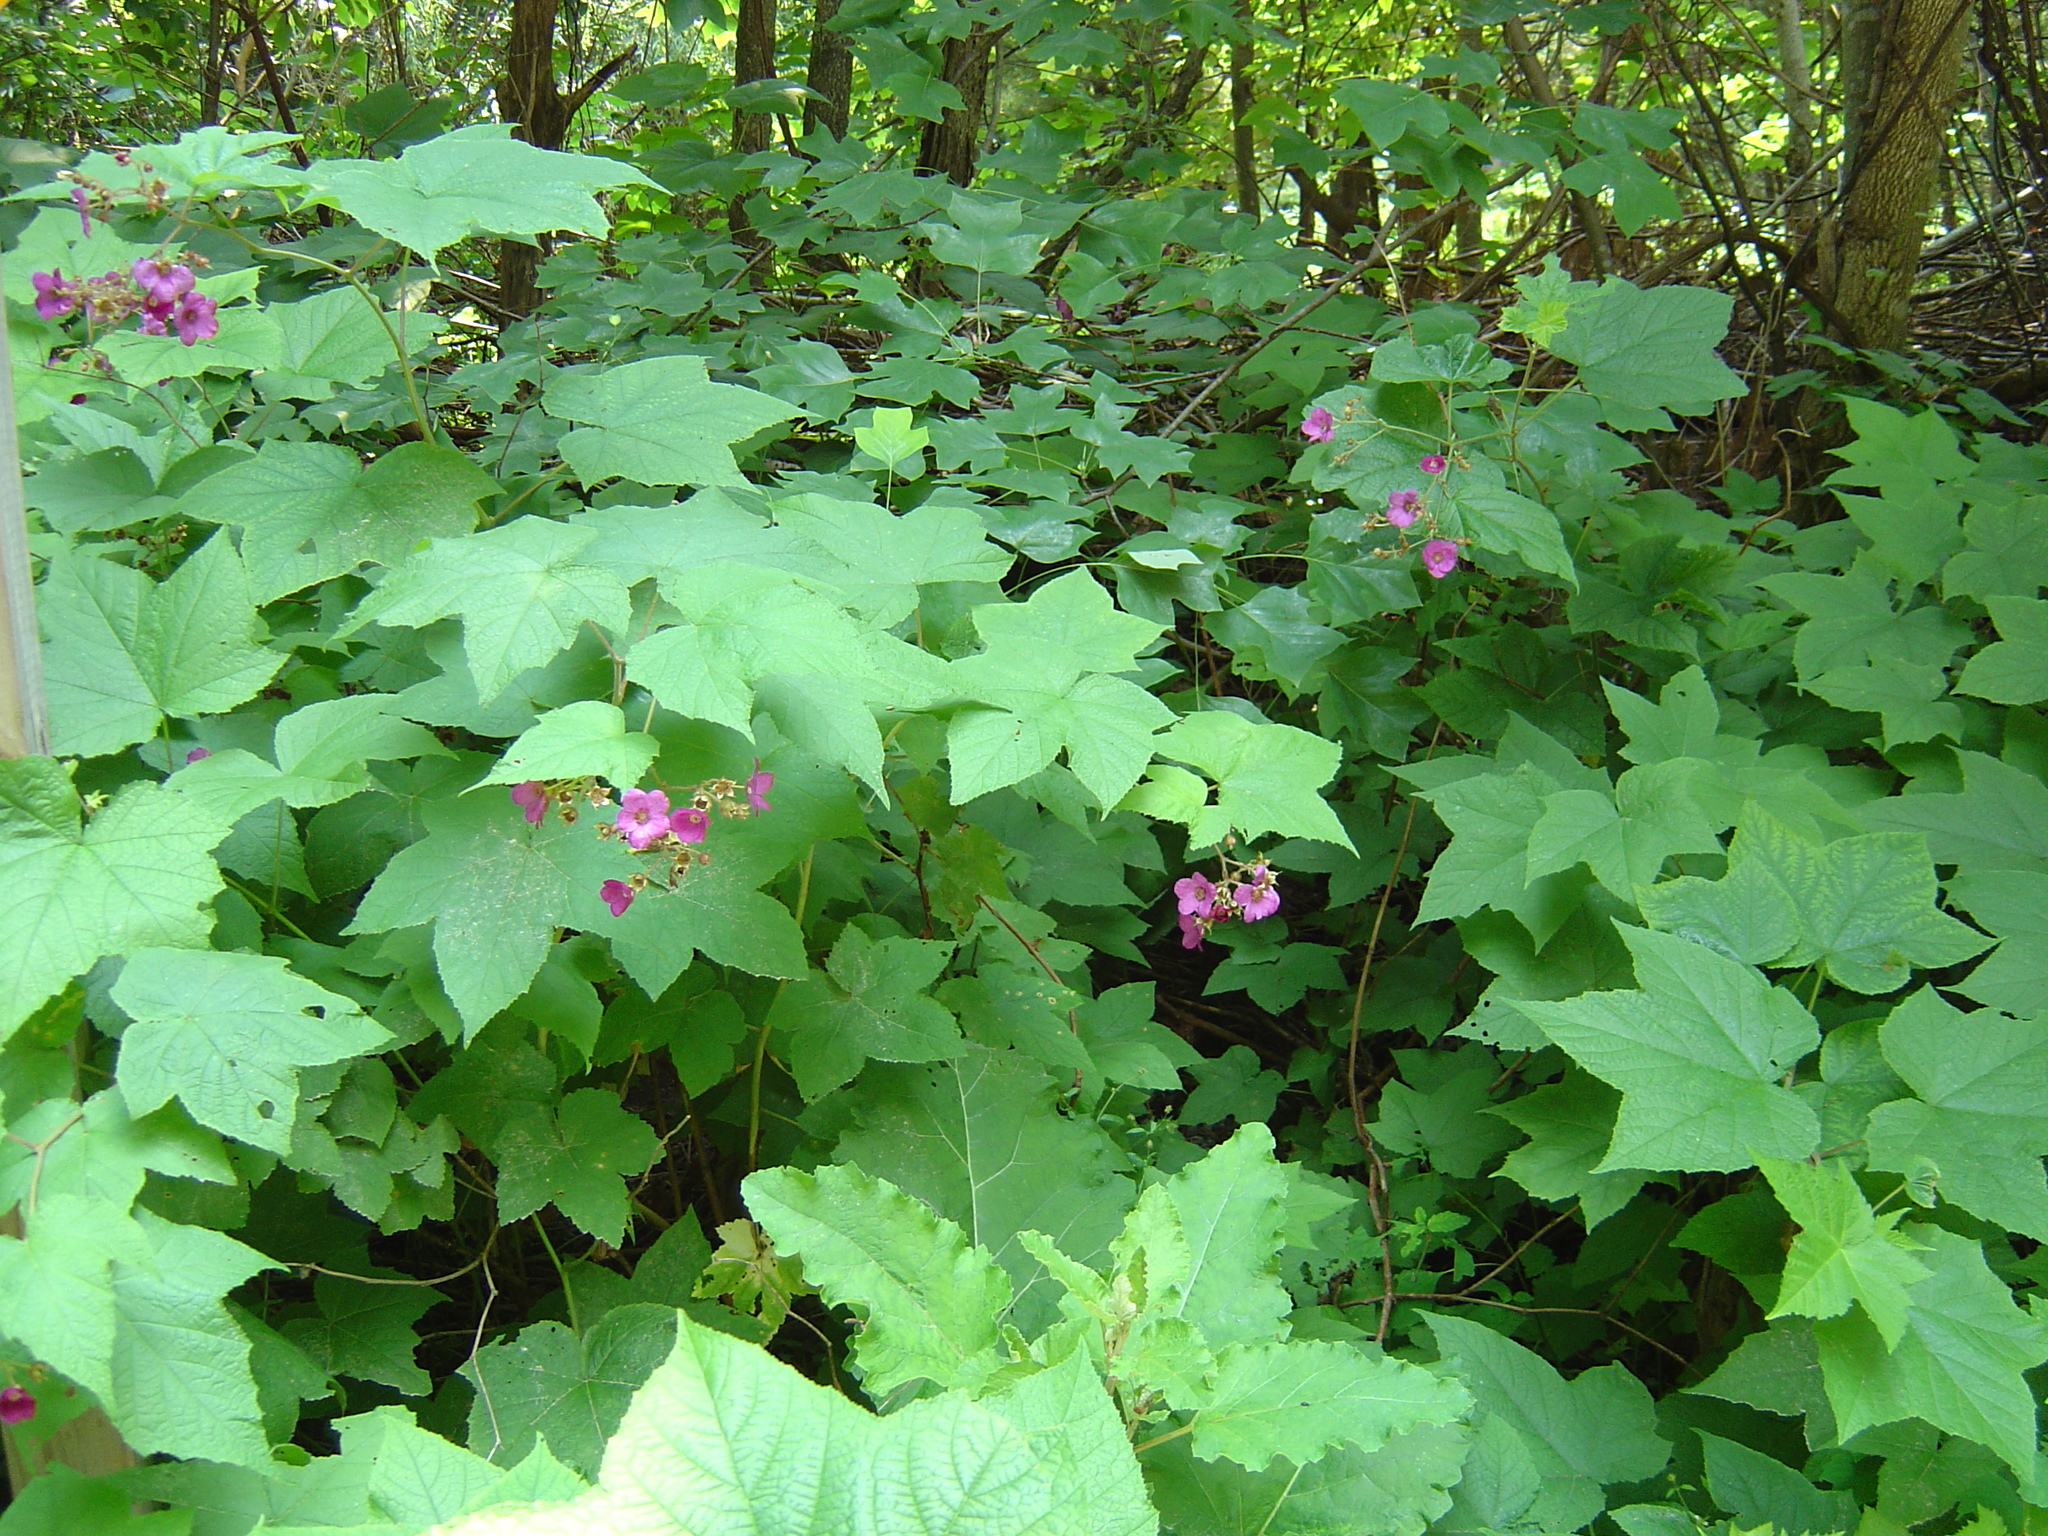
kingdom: Plantae
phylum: Tracheophyta
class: Magnoliopsida
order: Rosales
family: Rosaceae
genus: Rubus
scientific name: Rubus odoratus
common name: Purple-flowered raspberry
